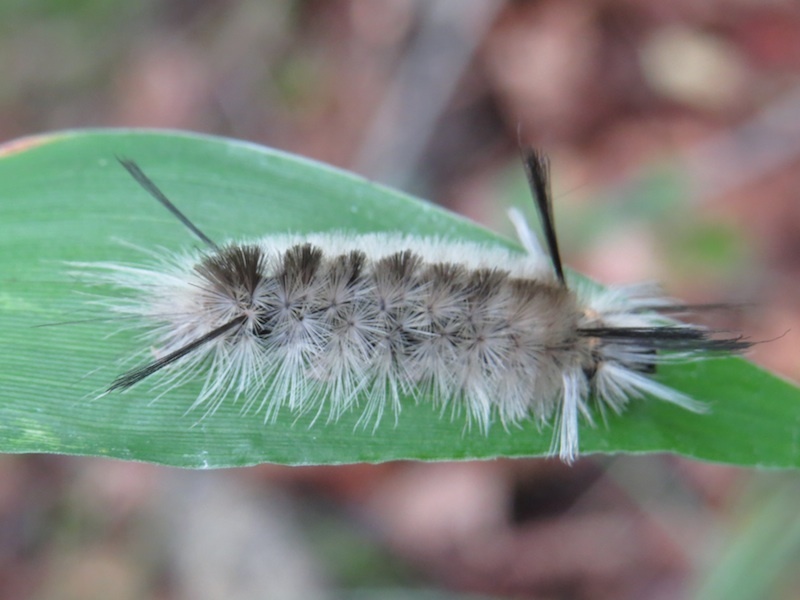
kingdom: Animalia
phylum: Arthropoda
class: Insecta
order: Lepidoptera
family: Erebidae
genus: Halysidota
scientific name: Halysidota tessellaris
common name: Banded tussock moth
